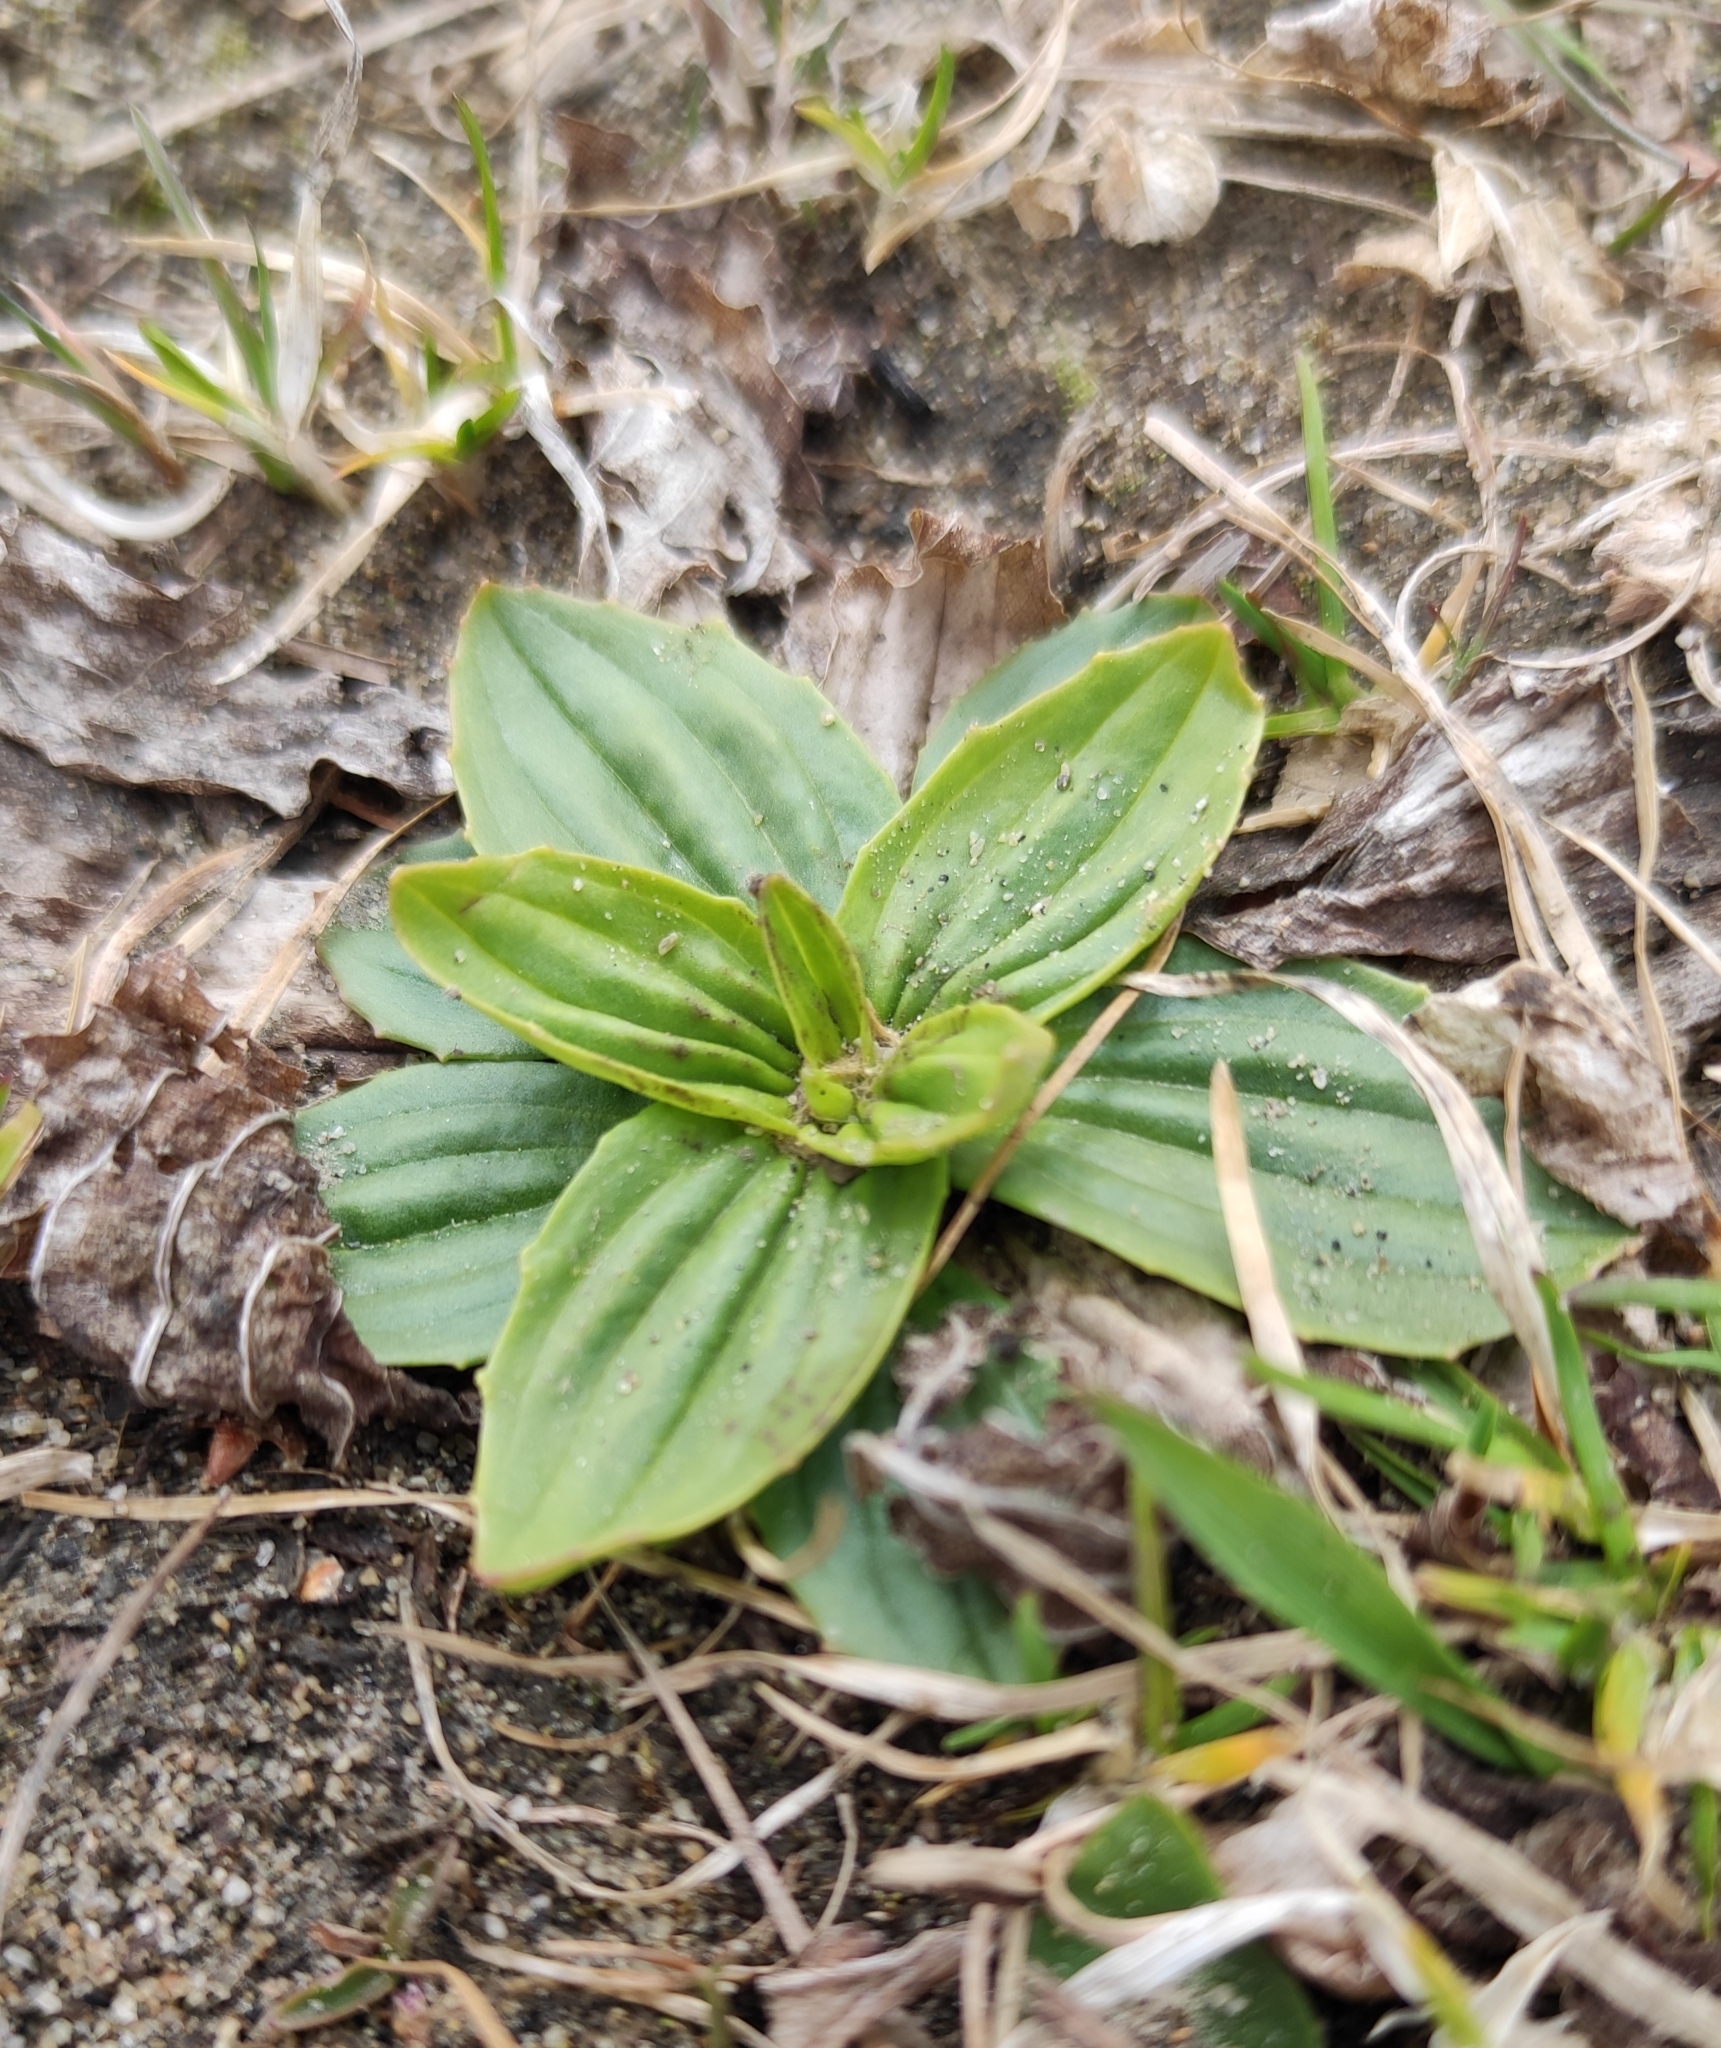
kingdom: Plantae
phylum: Tracheophyta
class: Magnoliopsida
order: Lamiales
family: Plantaginaceae
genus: Plantago
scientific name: Plantago depressa
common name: Depressed plantain
